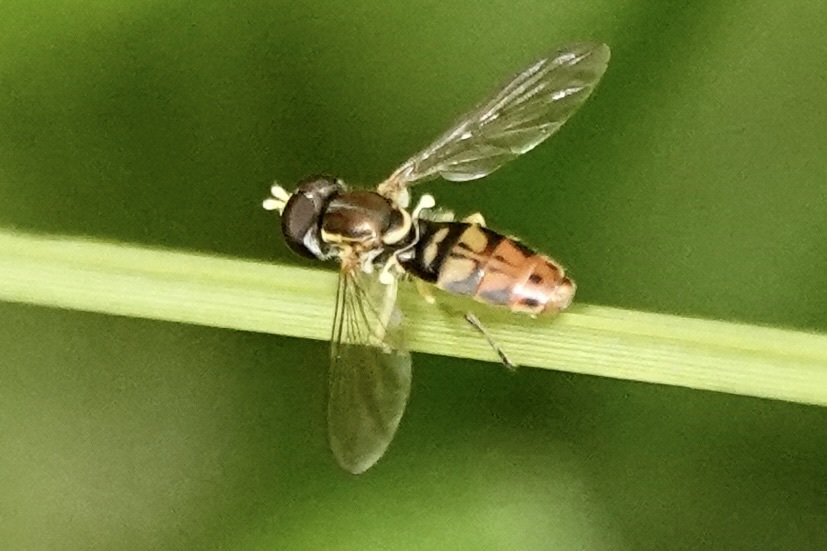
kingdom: Animalia
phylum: Arthropoda
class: Insecta
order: Diptera
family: Syrphidae
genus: Toxomerus
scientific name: Toxomerus marginatus
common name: Syrphid fly
